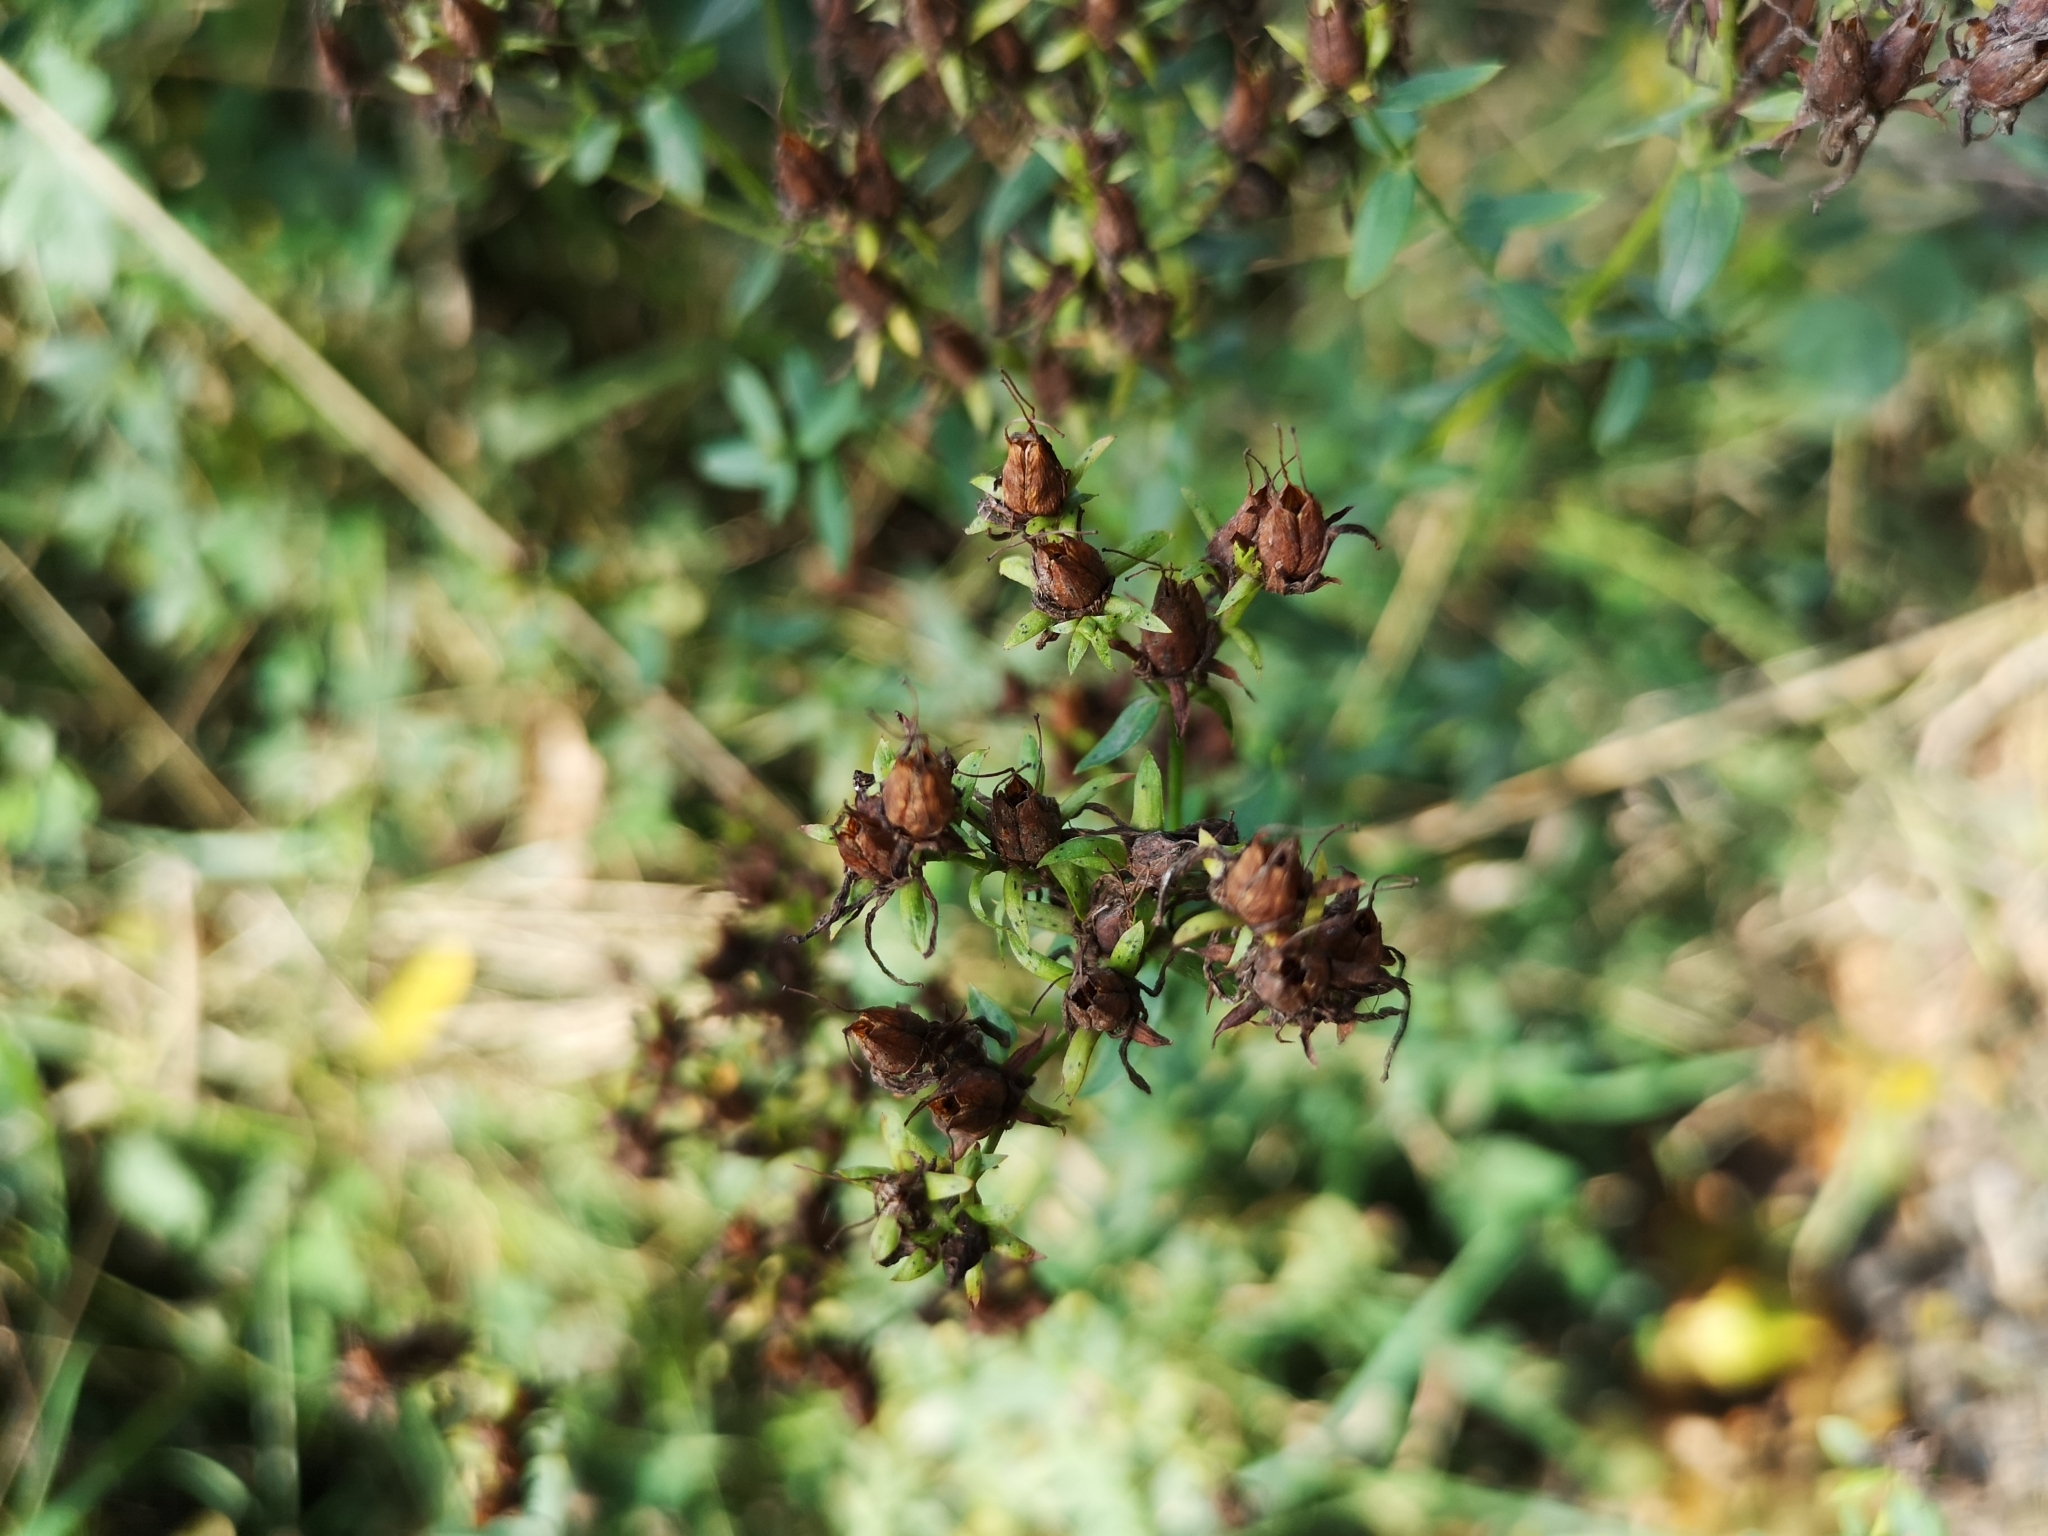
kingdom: Plantae
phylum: Tracheophyta
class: Magnoliopsida
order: Malpighiales
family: Hypericaceae
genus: Hypericum
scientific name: Hypericum perforatum
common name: Common st. johnswort
